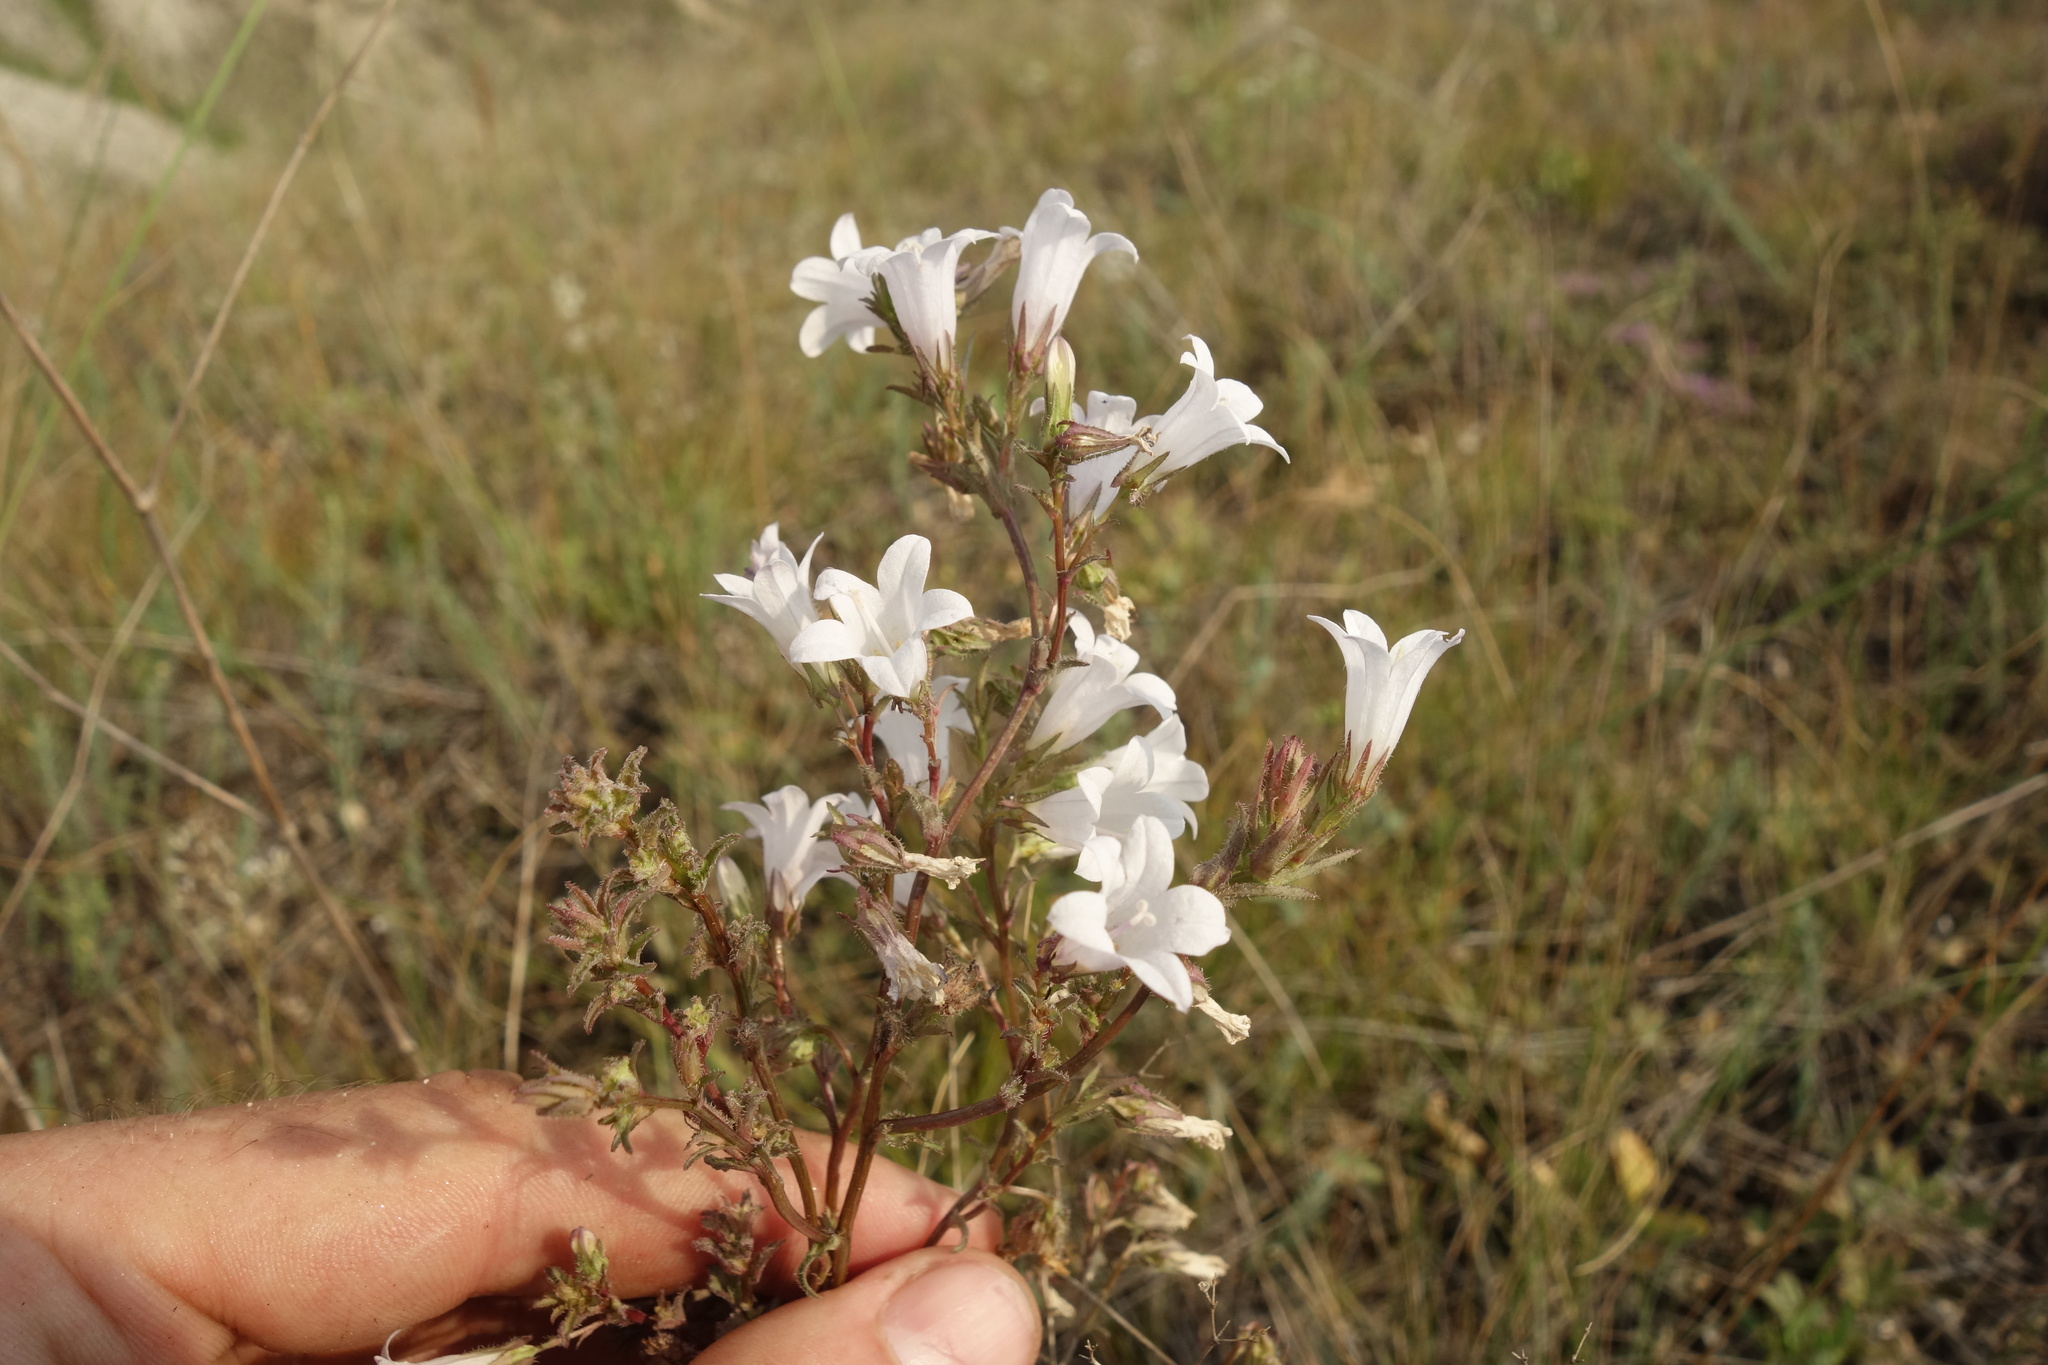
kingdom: Plantae
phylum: Tracheophyta
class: Magnoliopsida
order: Asterales
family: Campanulaceae
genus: Campanula
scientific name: Campanula sibirica
